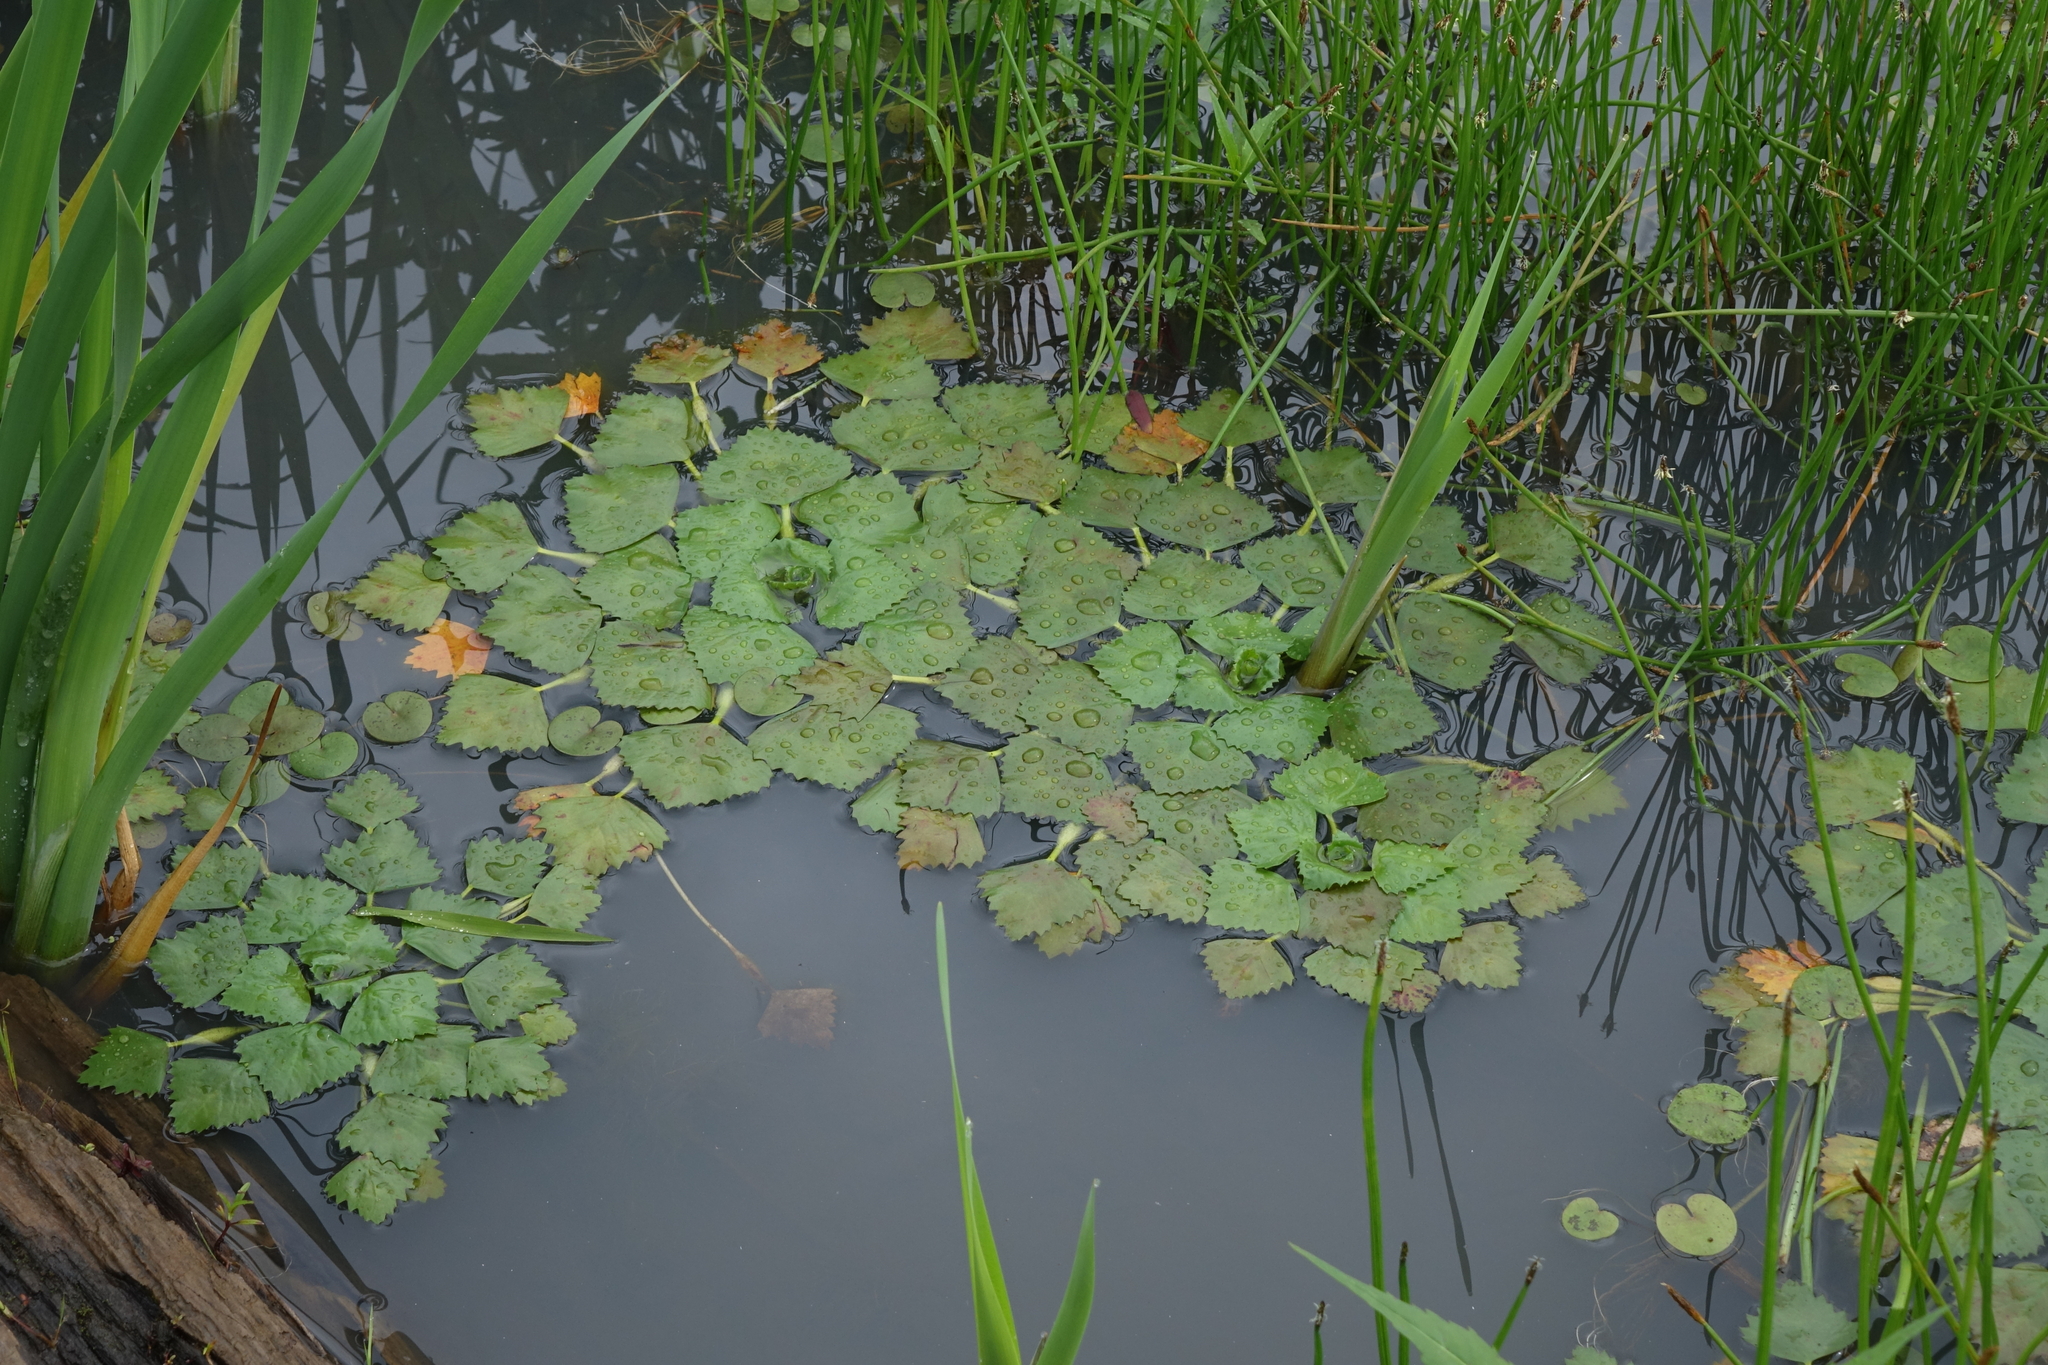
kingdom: Plantae
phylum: Tracheophyta
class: Magnoliopsida
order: Myrtales
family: Lythraceae
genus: Trapa
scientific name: Trapa natans
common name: Water chestnut
